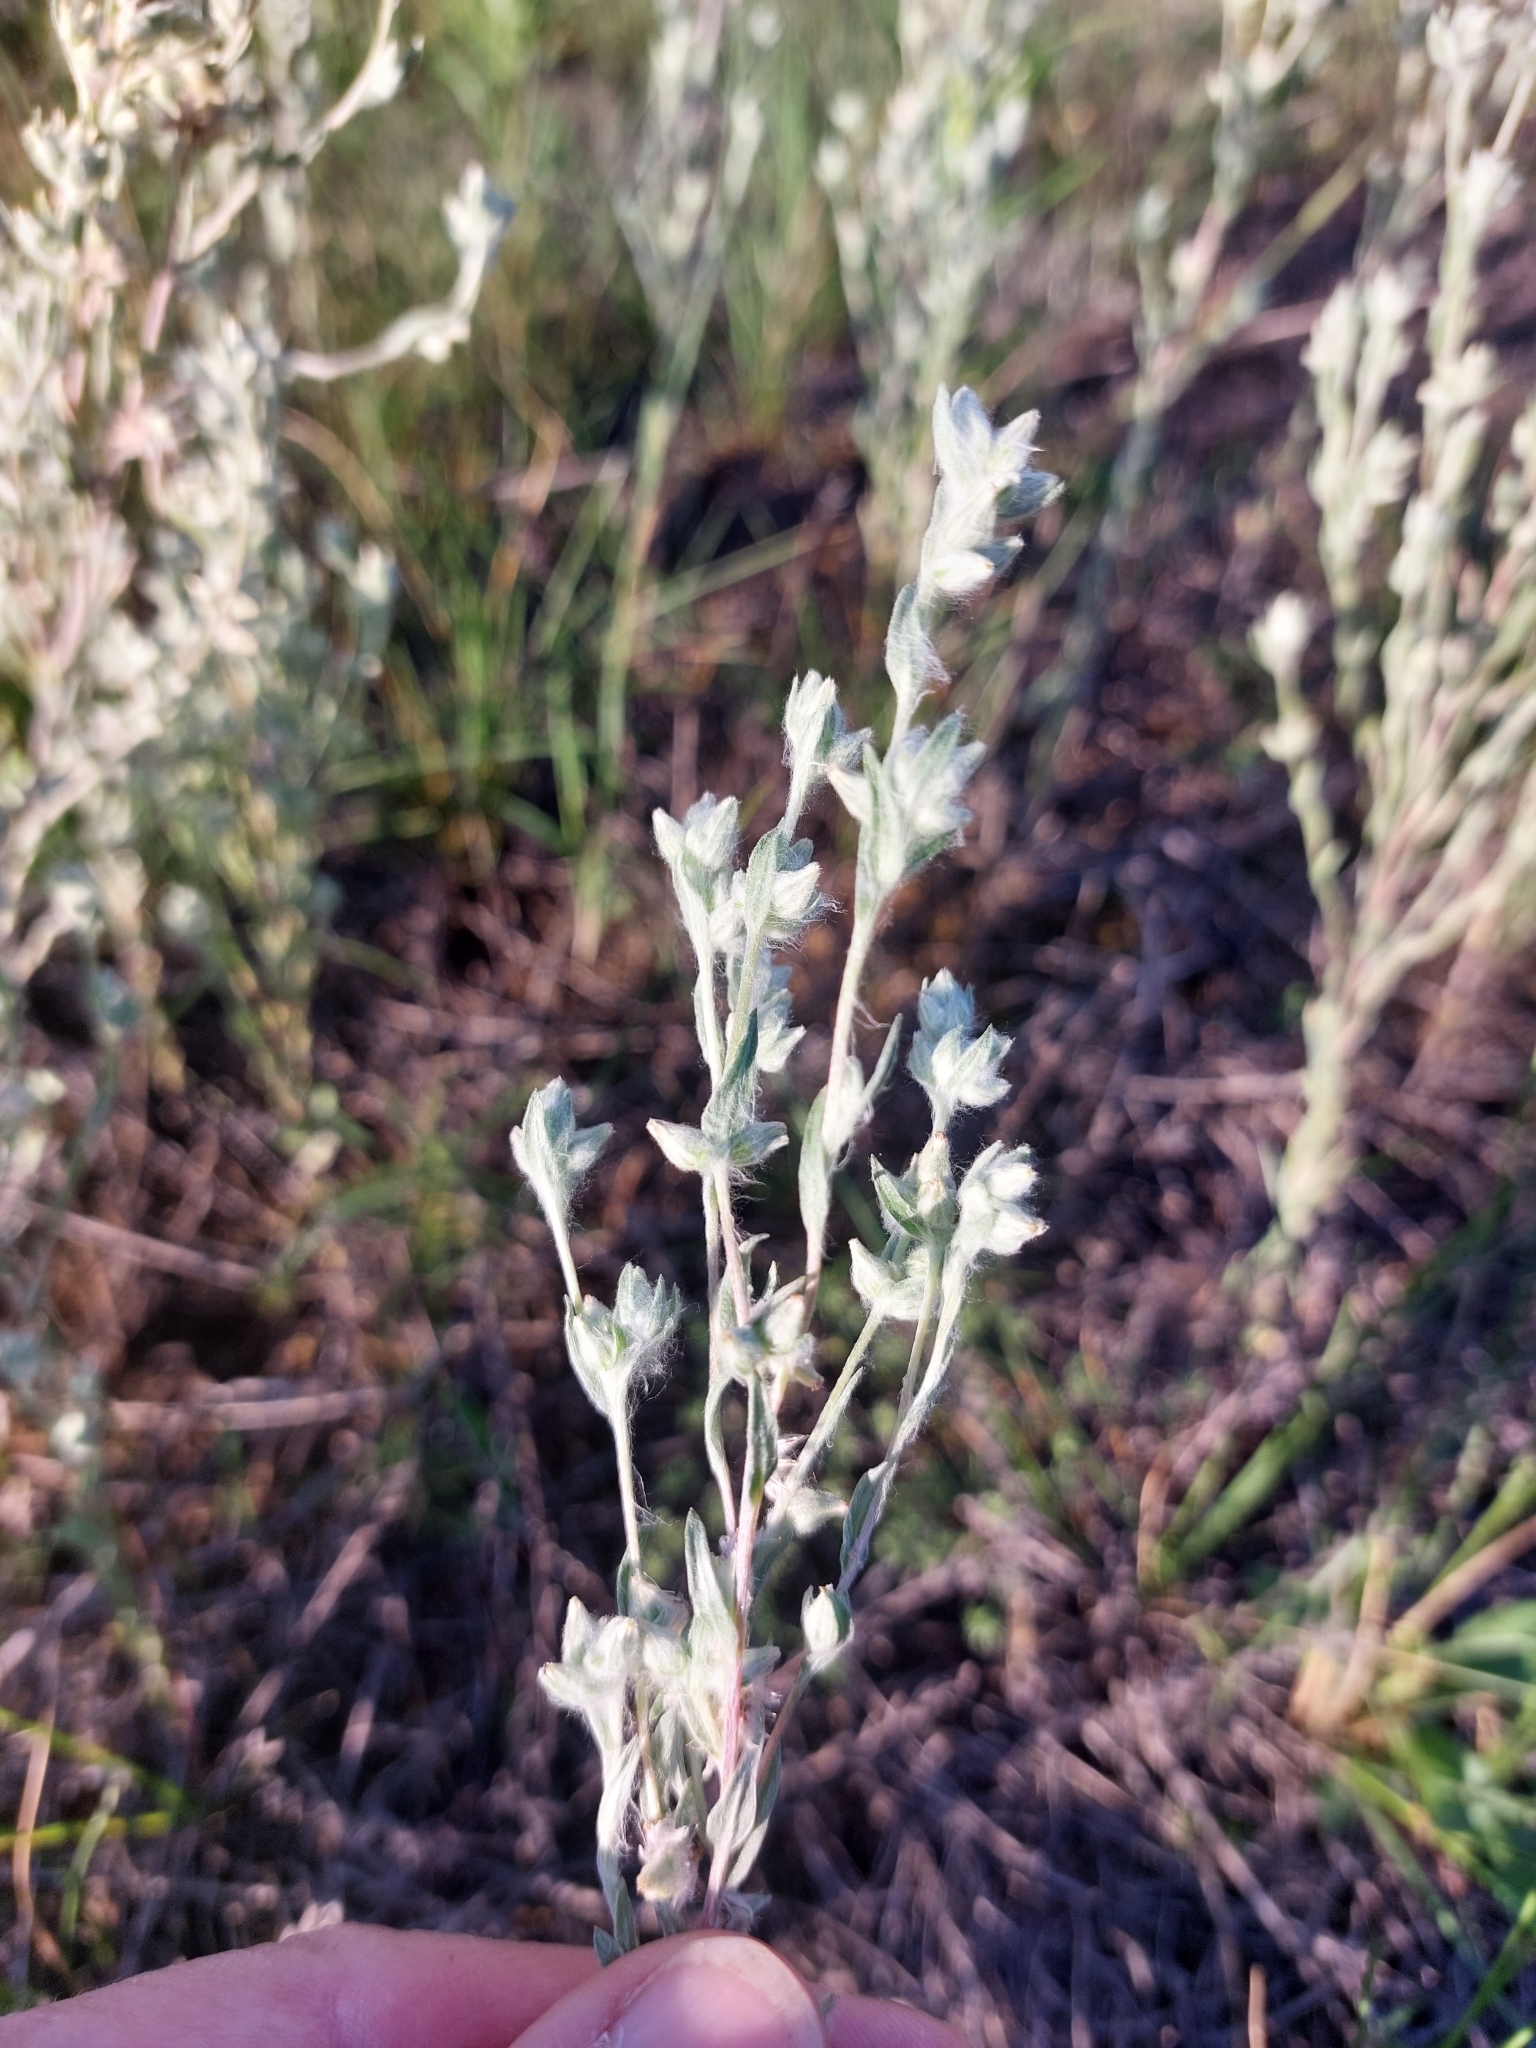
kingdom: Plantae
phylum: Tracheophyta
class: Magnoliopsida
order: Asterales
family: Asteraceae
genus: Filago
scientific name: Filago arvensis
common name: Field cudweed
